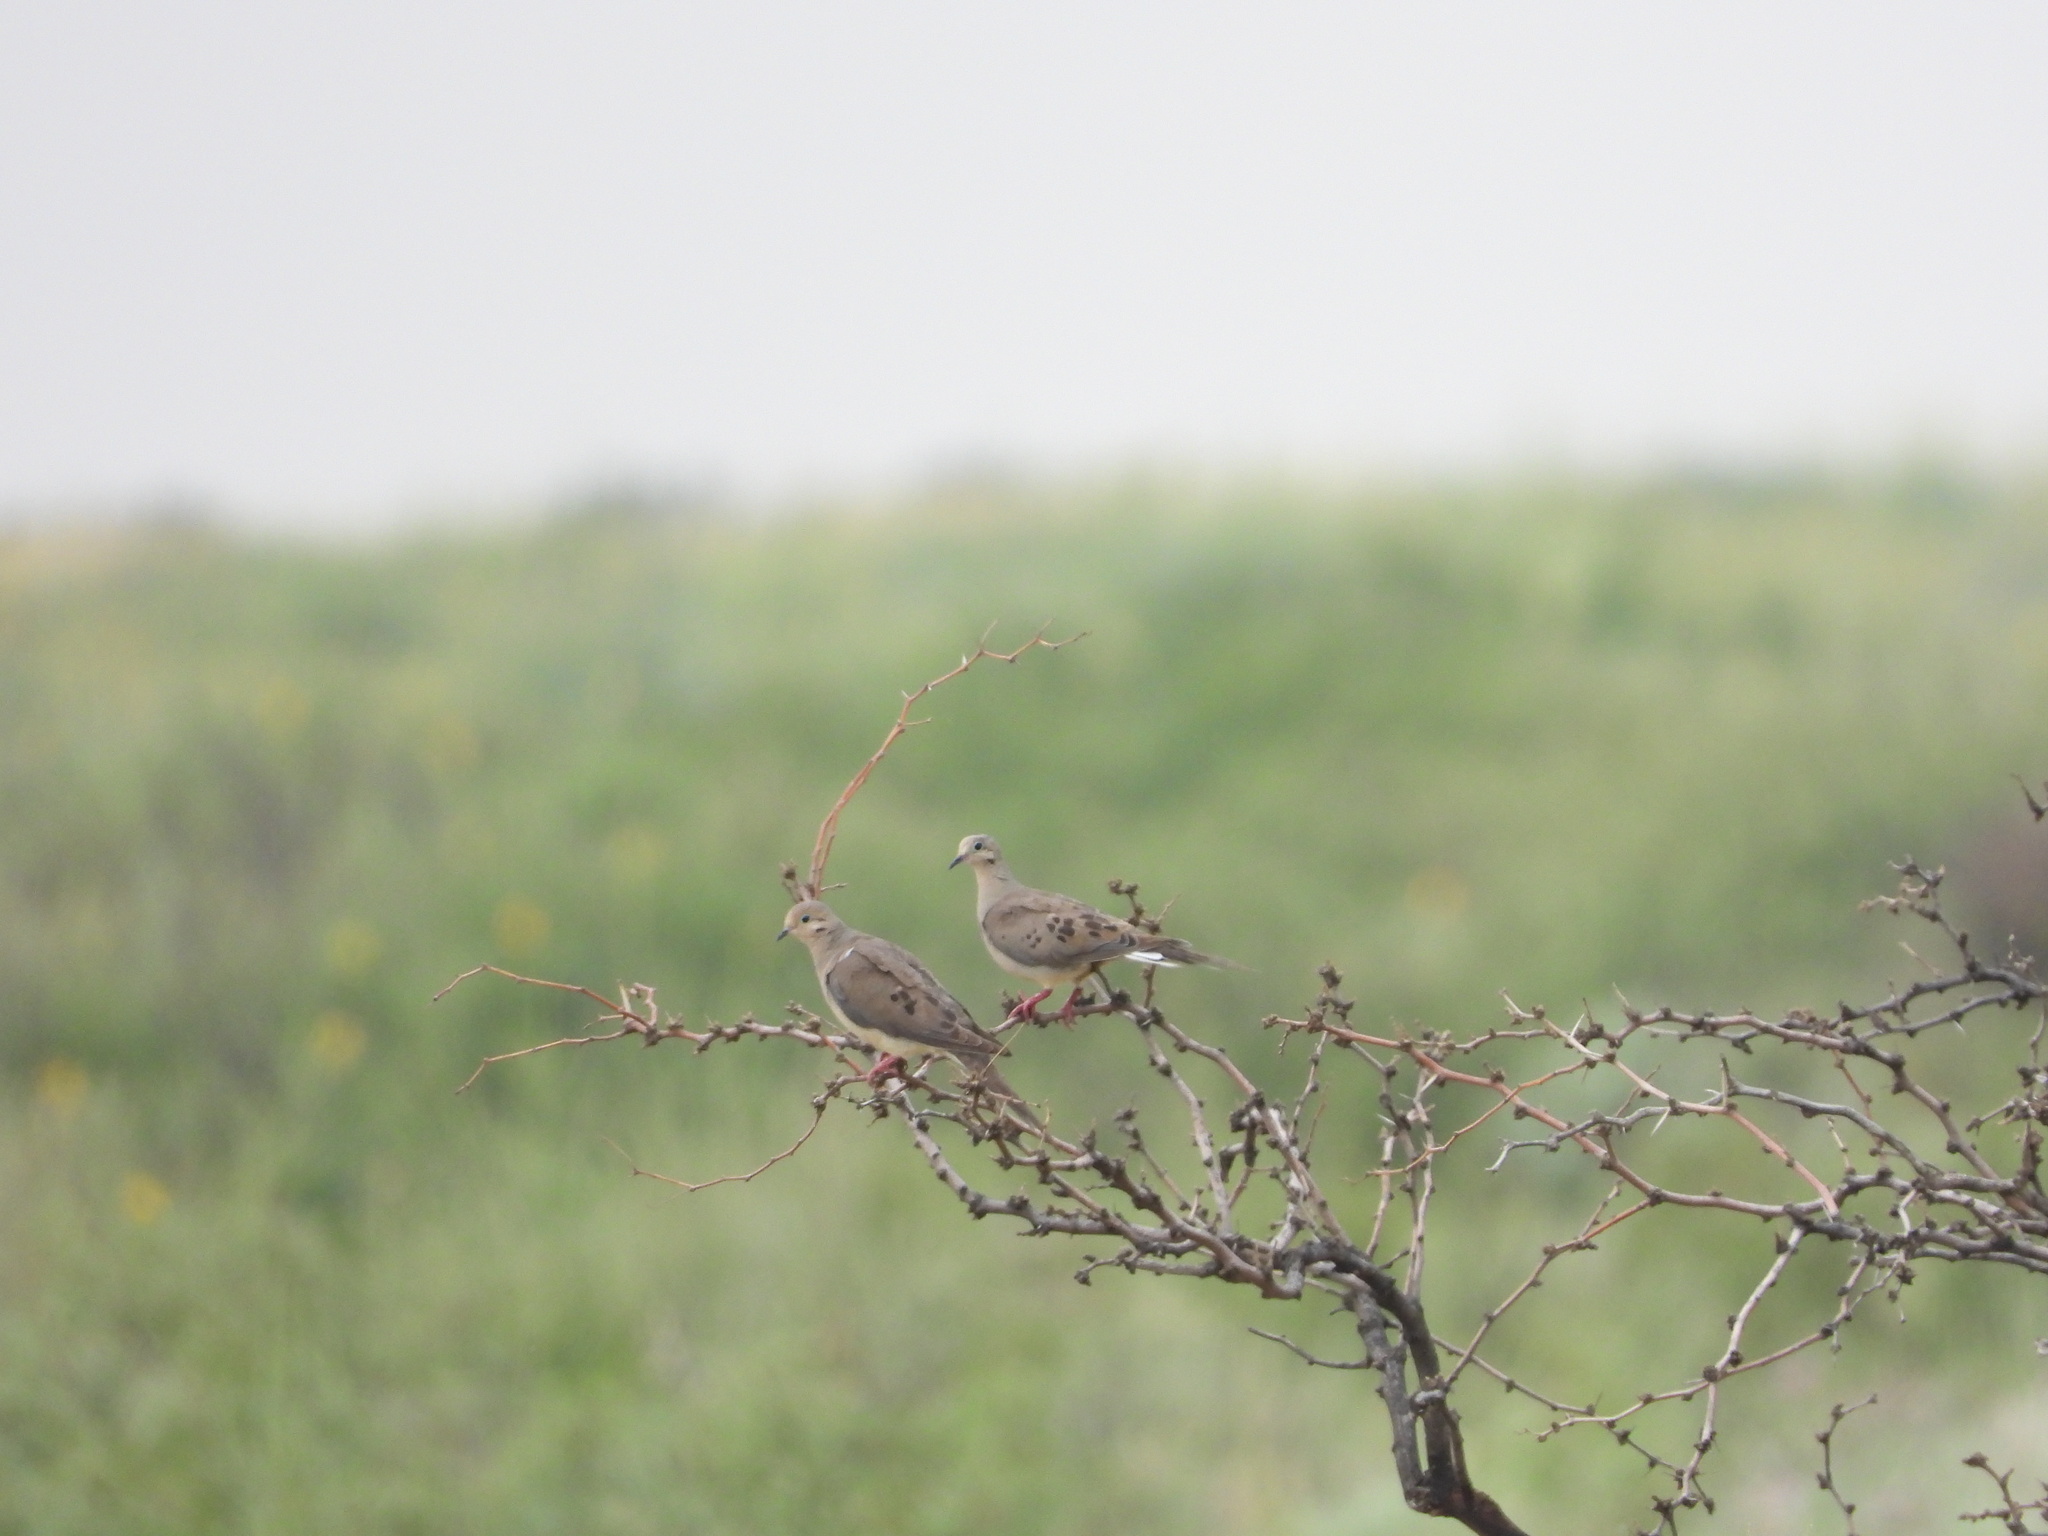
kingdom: Animalia
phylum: Chordata
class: Aves
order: Columbiformes
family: Columbidae
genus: Zenaida
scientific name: Zenaida macroura
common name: Mourning dove
